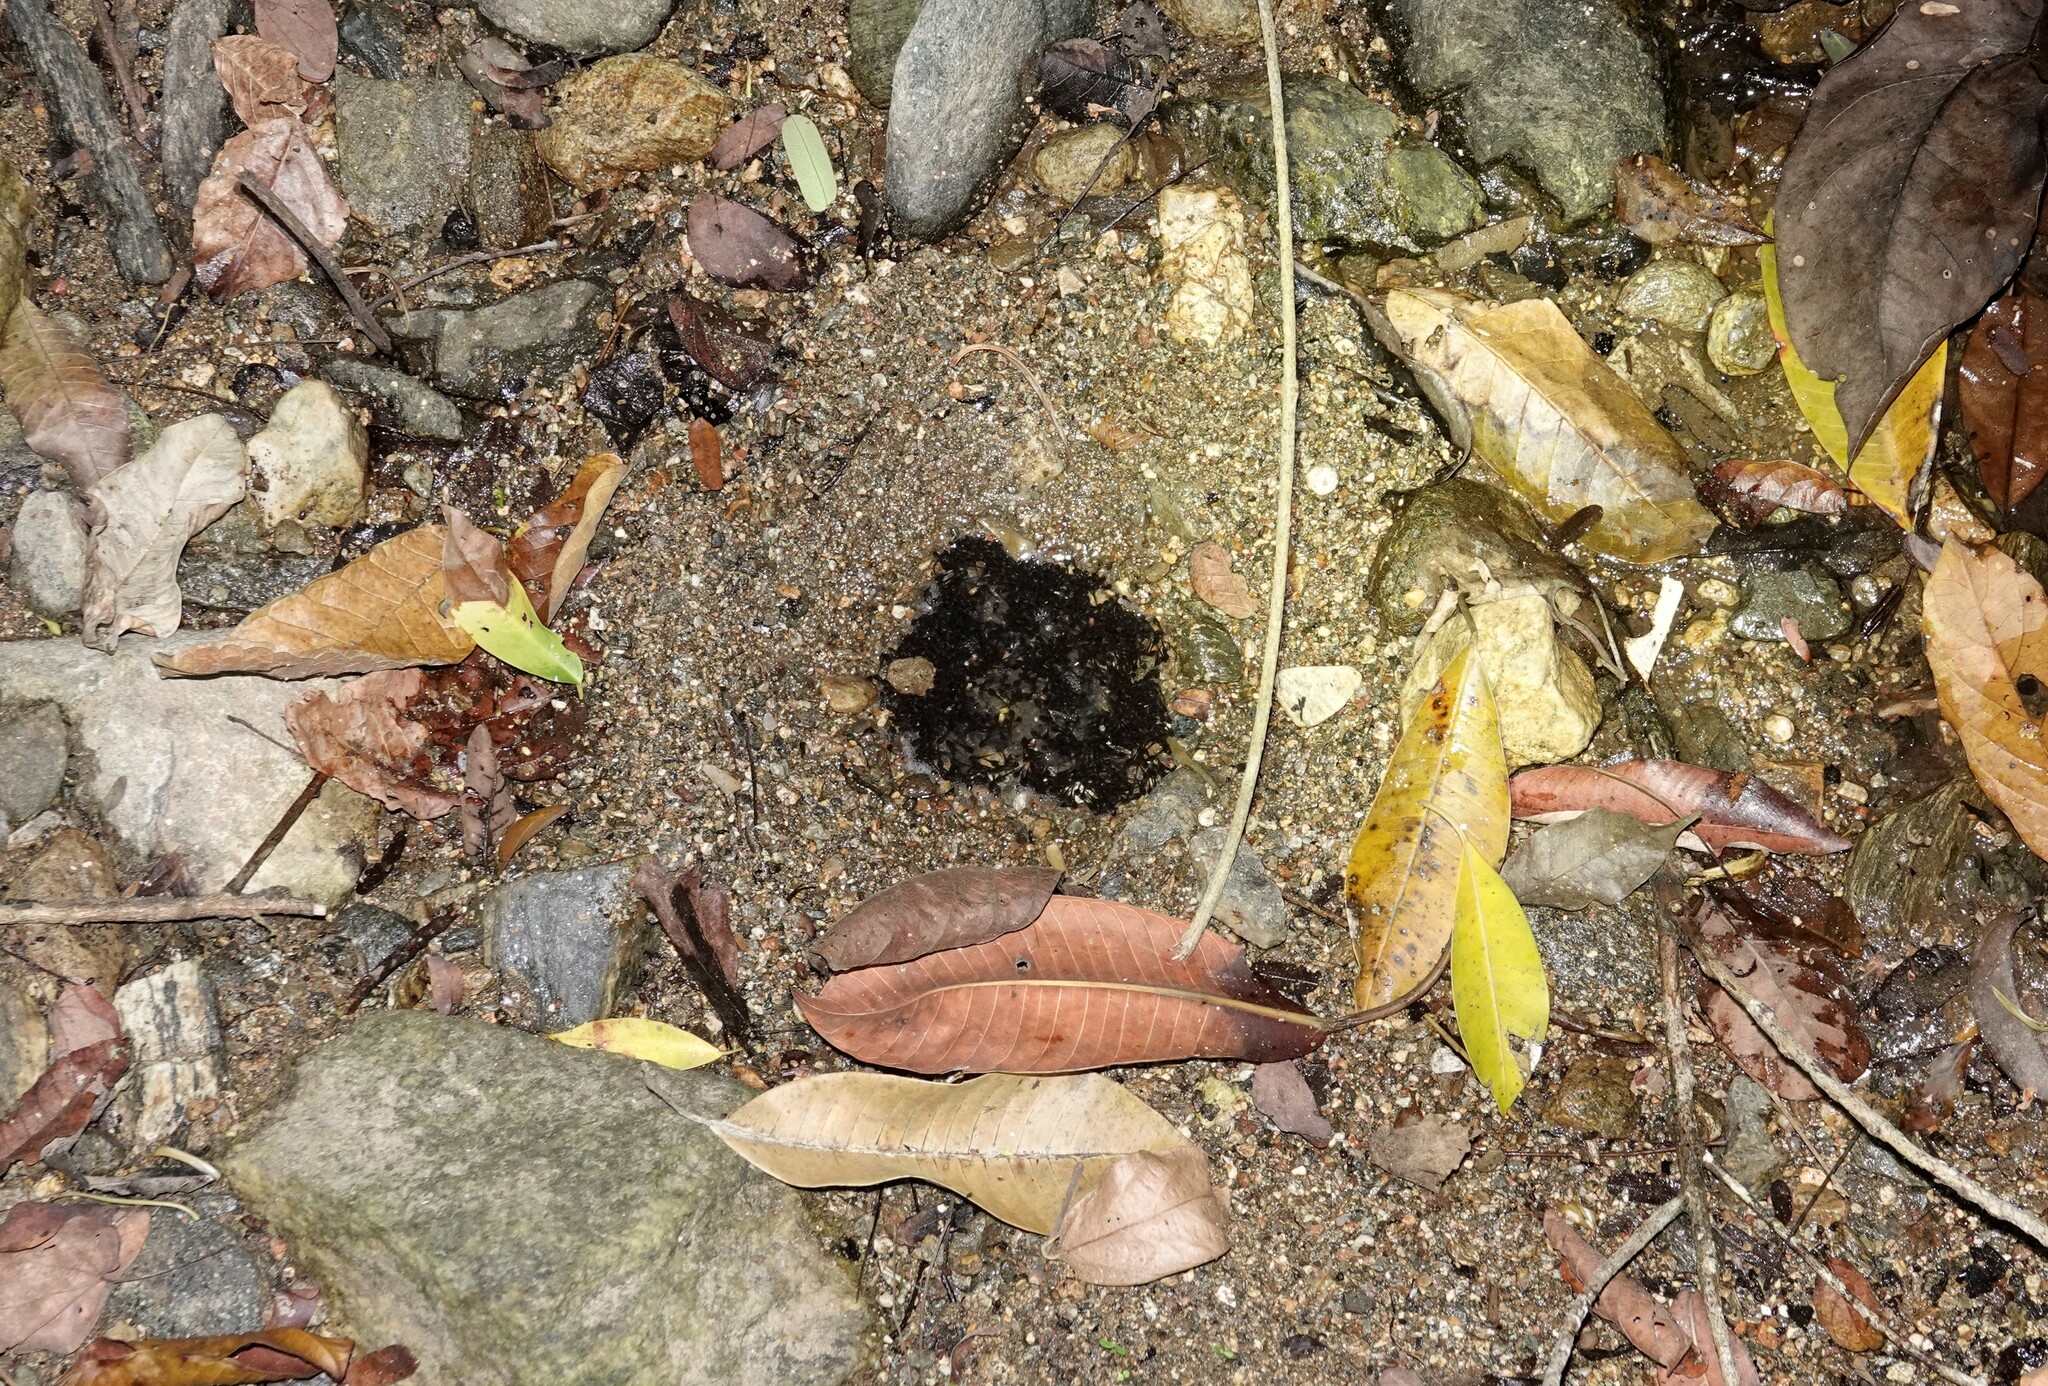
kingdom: Animalia
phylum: Chordata
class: Amphibia
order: Anura
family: Leptodactylidae
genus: Engystomops
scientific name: Engystomops pustulosus
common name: Tungara frog
